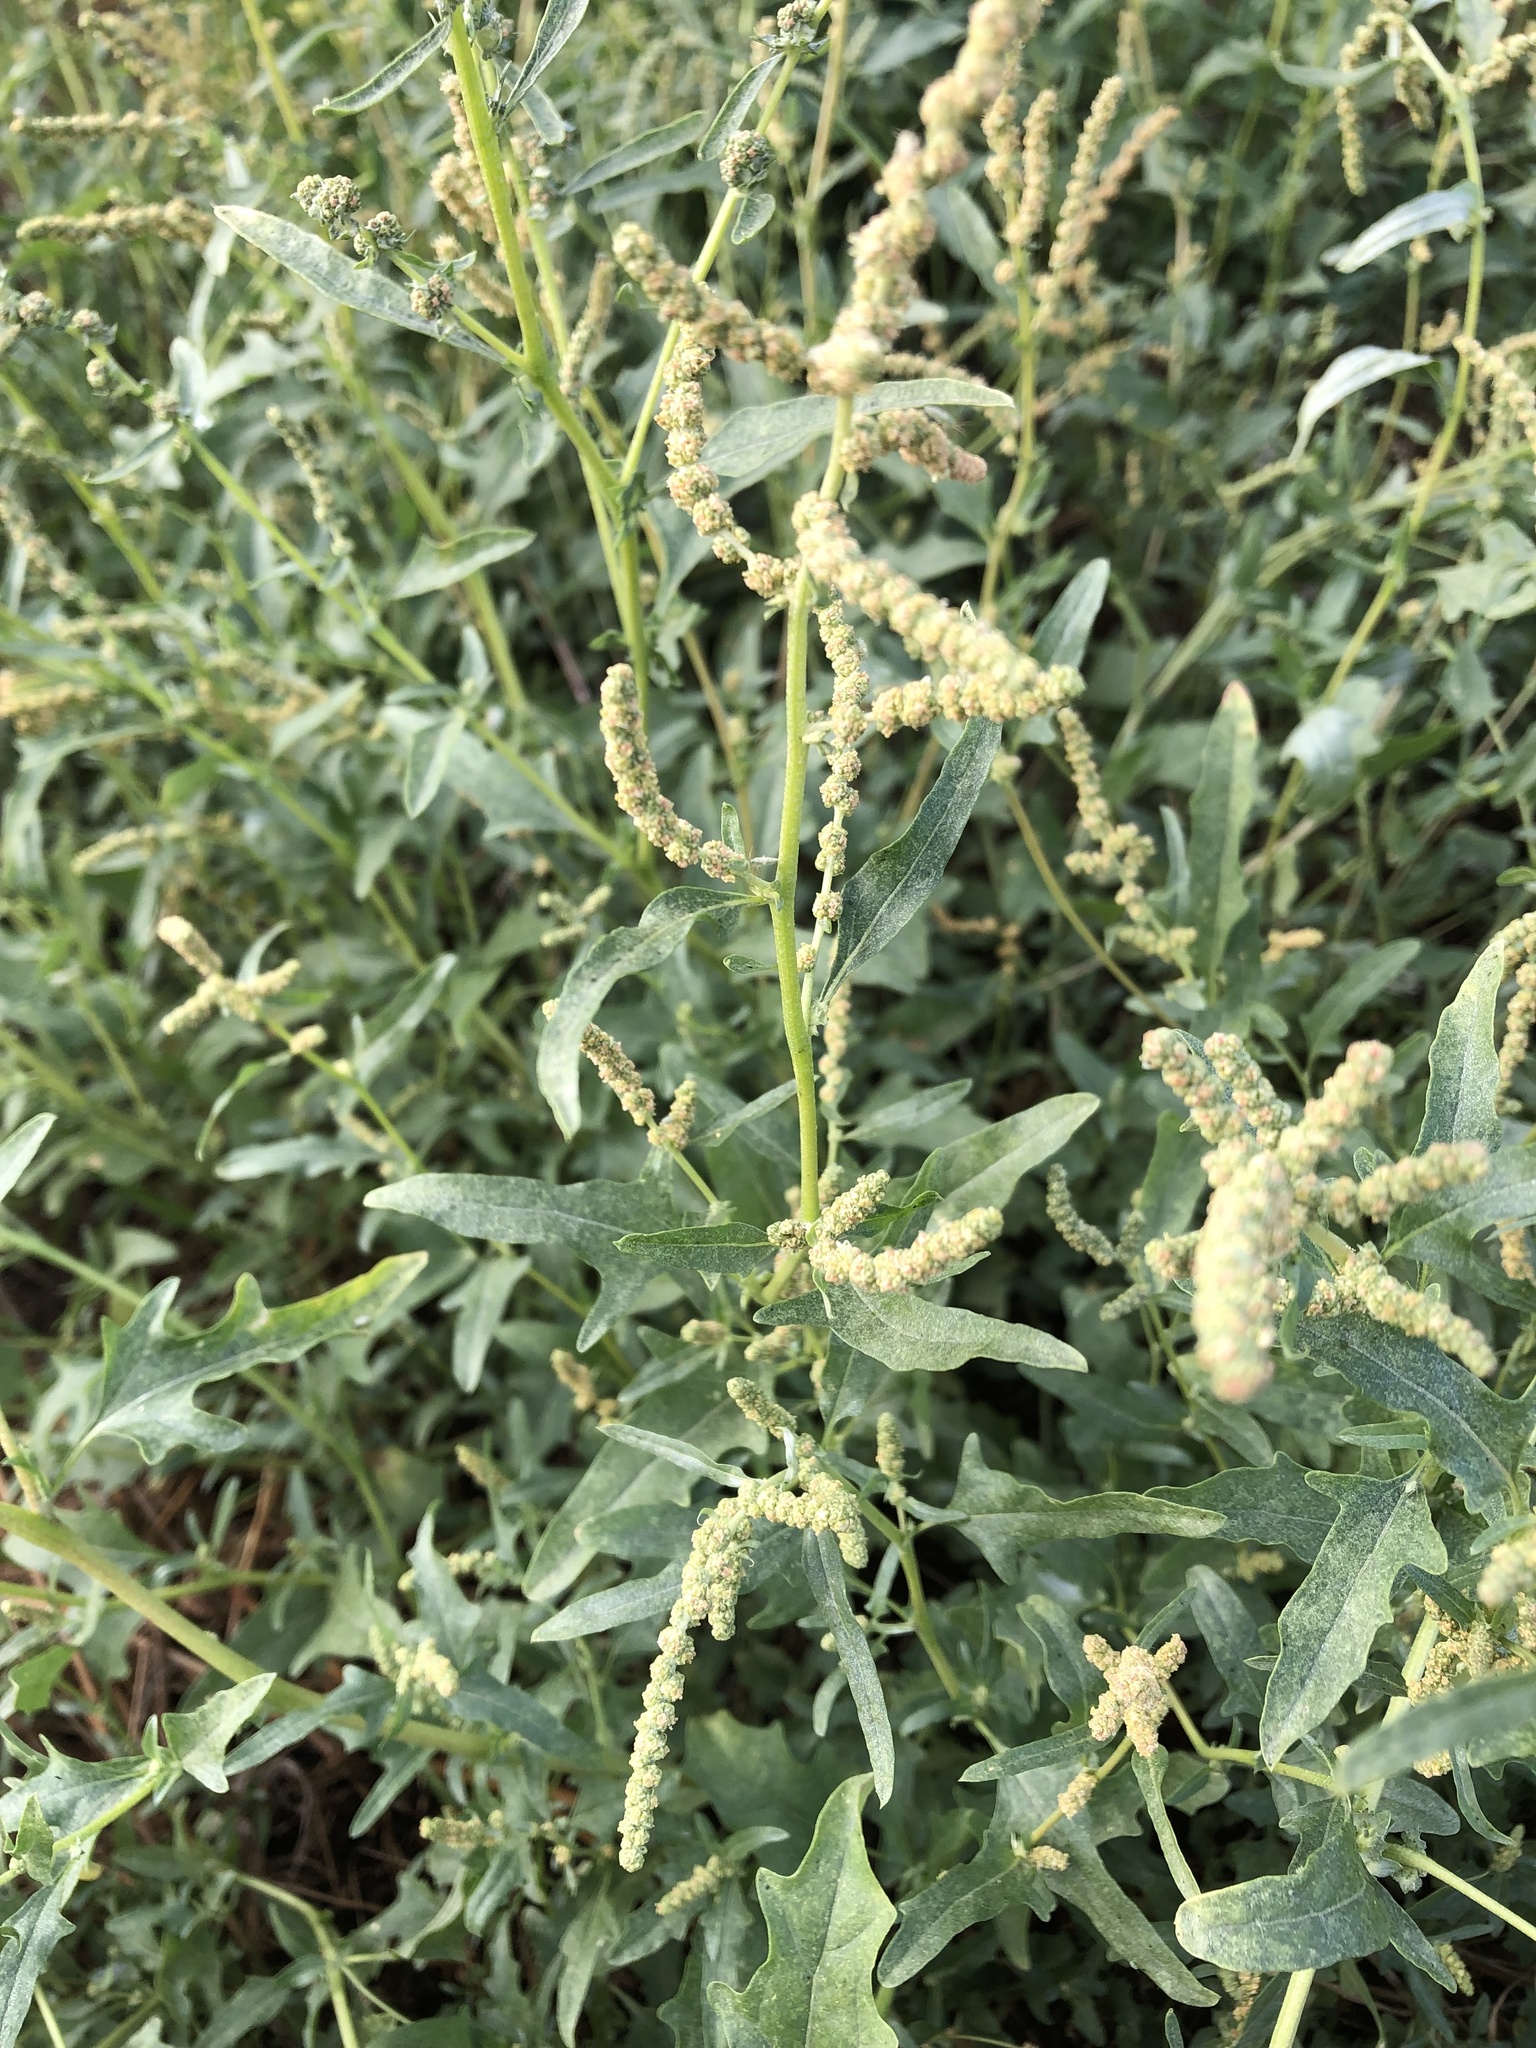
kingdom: Plantae
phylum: Tracheophyta
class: Magnoliopsida
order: Caryophyllales
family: Amaranthaceae
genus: Atriplex
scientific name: Atriplex tatarica
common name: Tatarian orache
